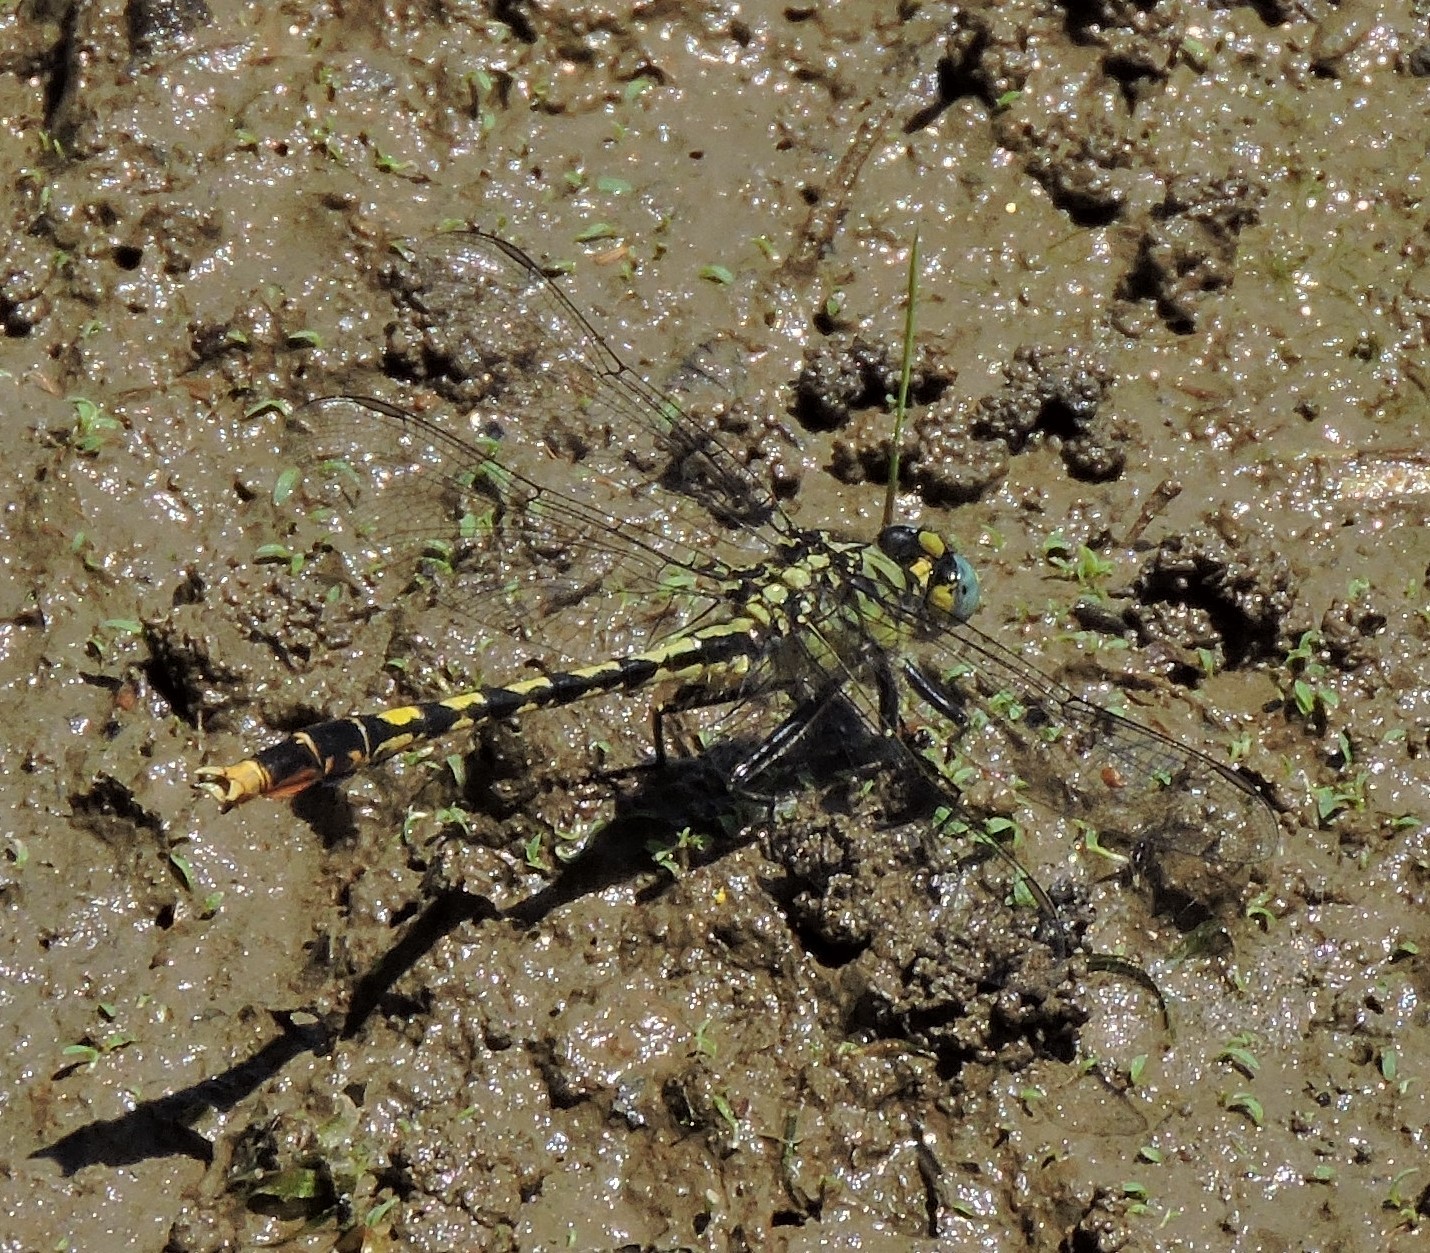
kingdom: Animalia
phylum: Arthropoda
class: Insecta
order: Odonata
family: Gomphidae
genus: Arigomphus
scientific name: Arigomphus villosipes
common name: Unicorn clubtail
